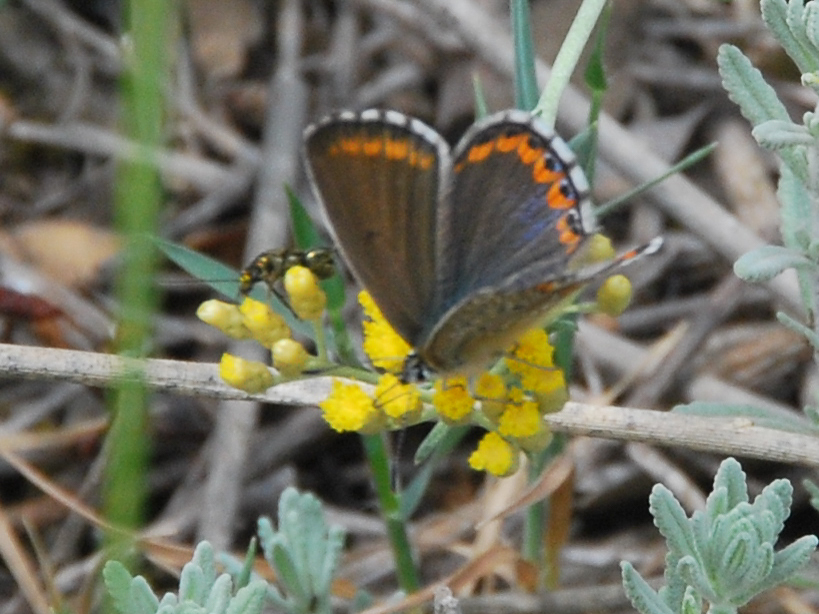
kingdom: Animalia
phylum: Arthropoda
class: Insecta
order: Lepidoptera
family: Lycaenidae
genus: Lysandra
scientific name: Lysandra bellargus
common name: Adonis blue
